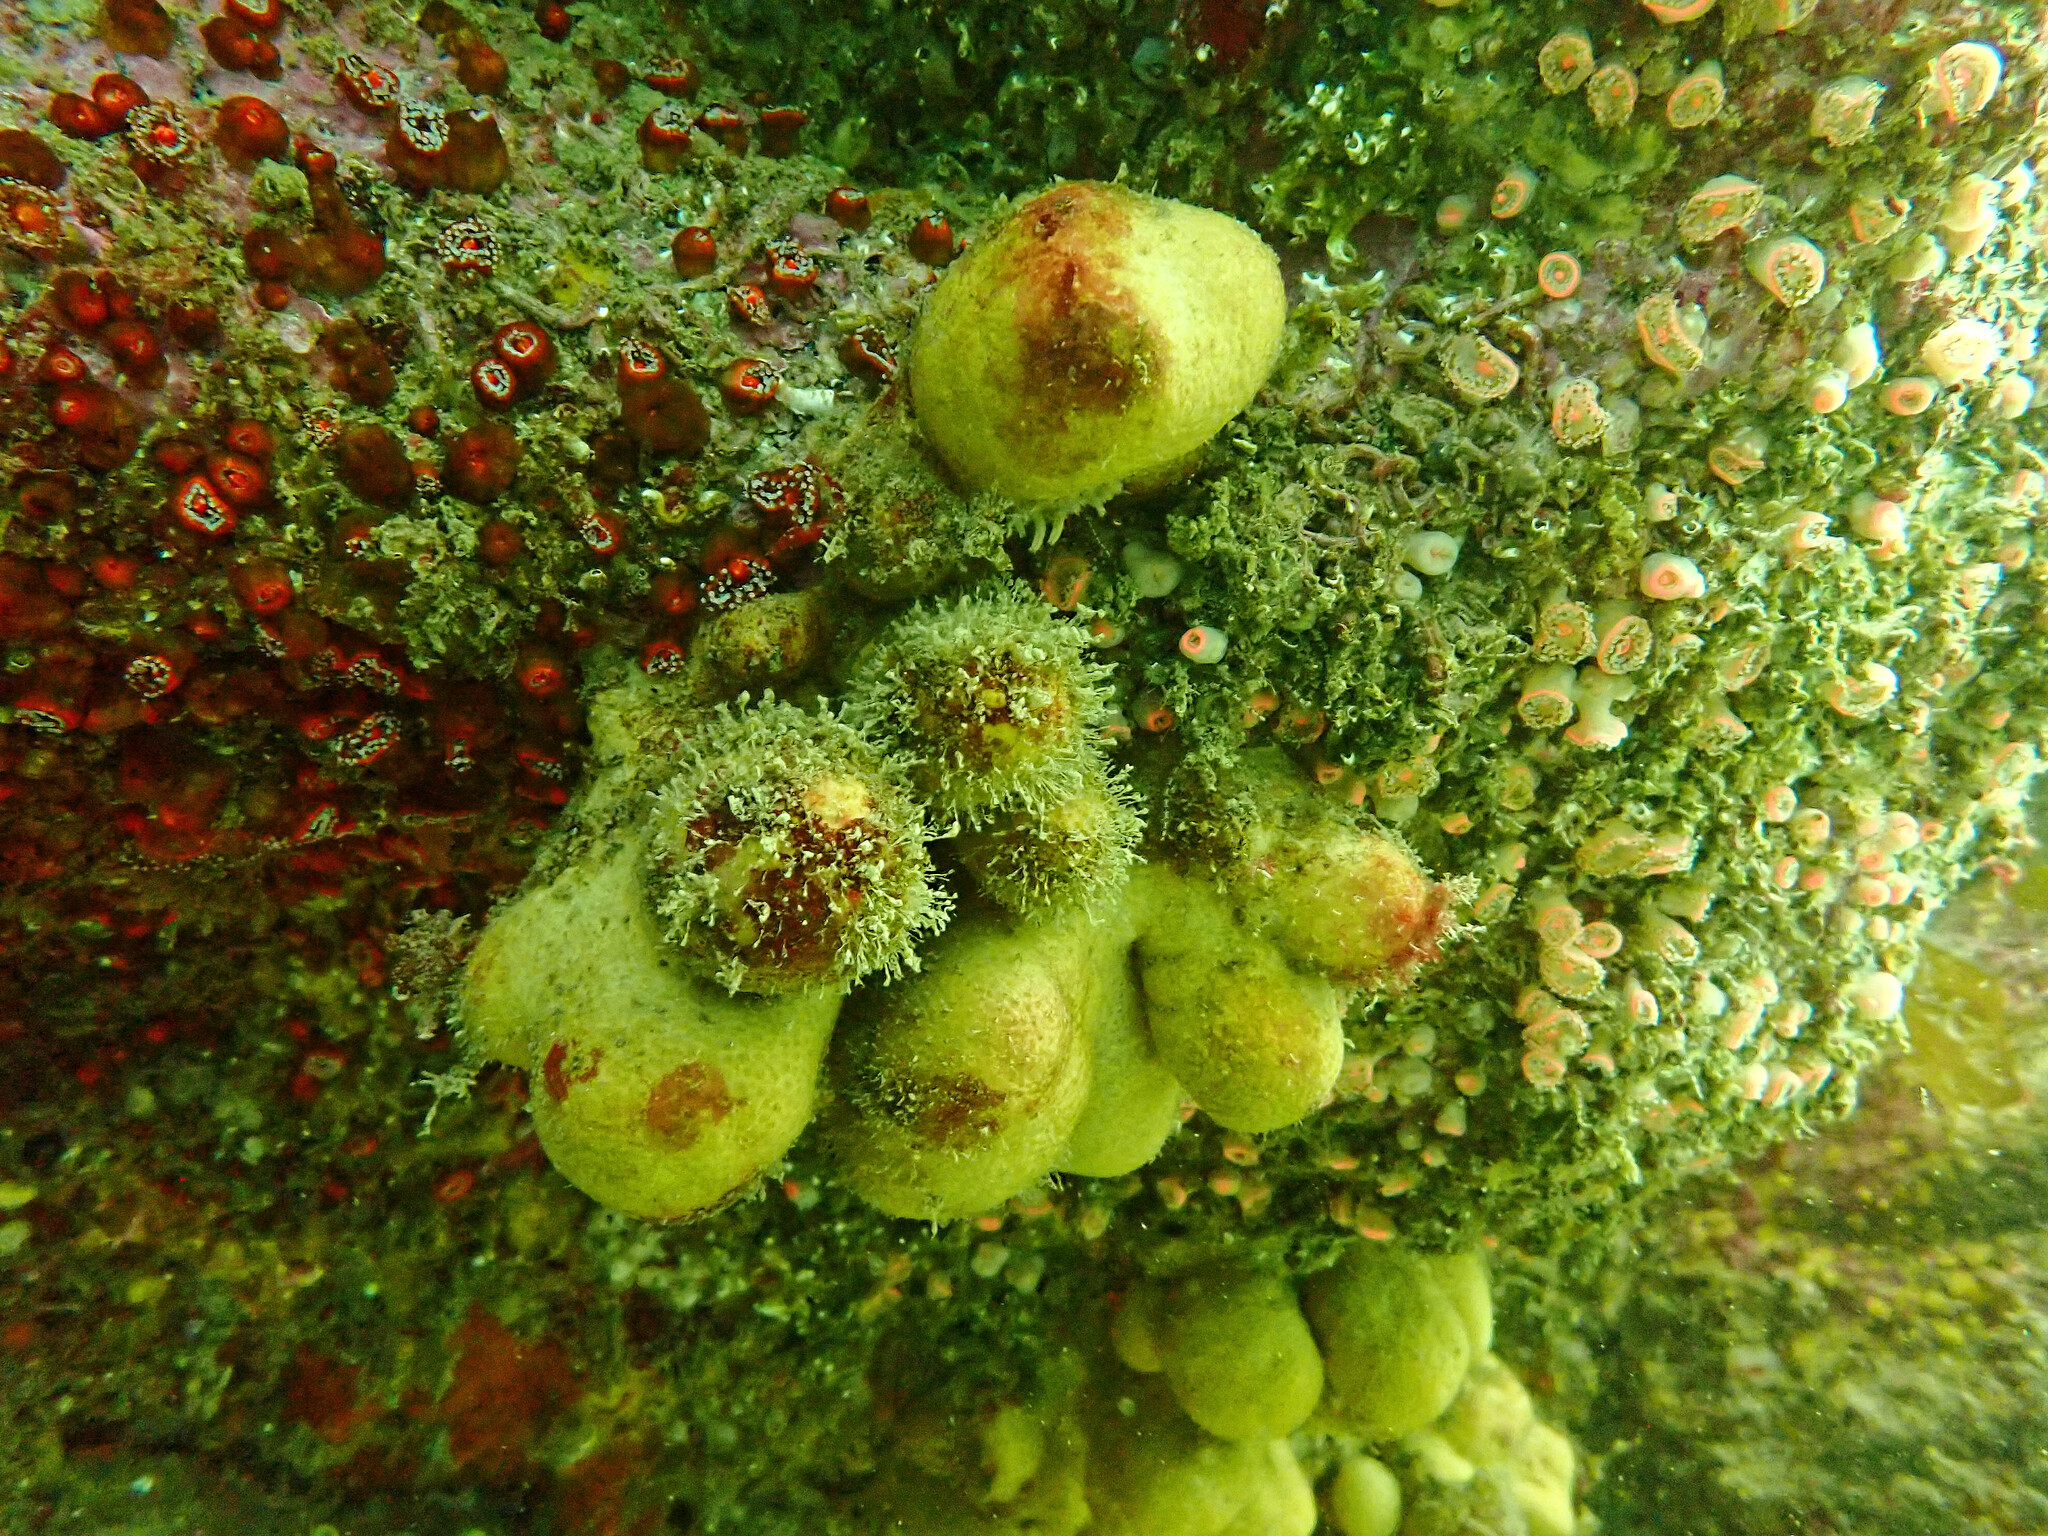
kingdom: Animalia
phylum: Cnidaria
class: Anthozoa
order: Malacalcyonacea
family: Alcyoniidae
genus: Alcyonium
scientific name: Alcyonium digitatum
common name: Dead man's fingers
